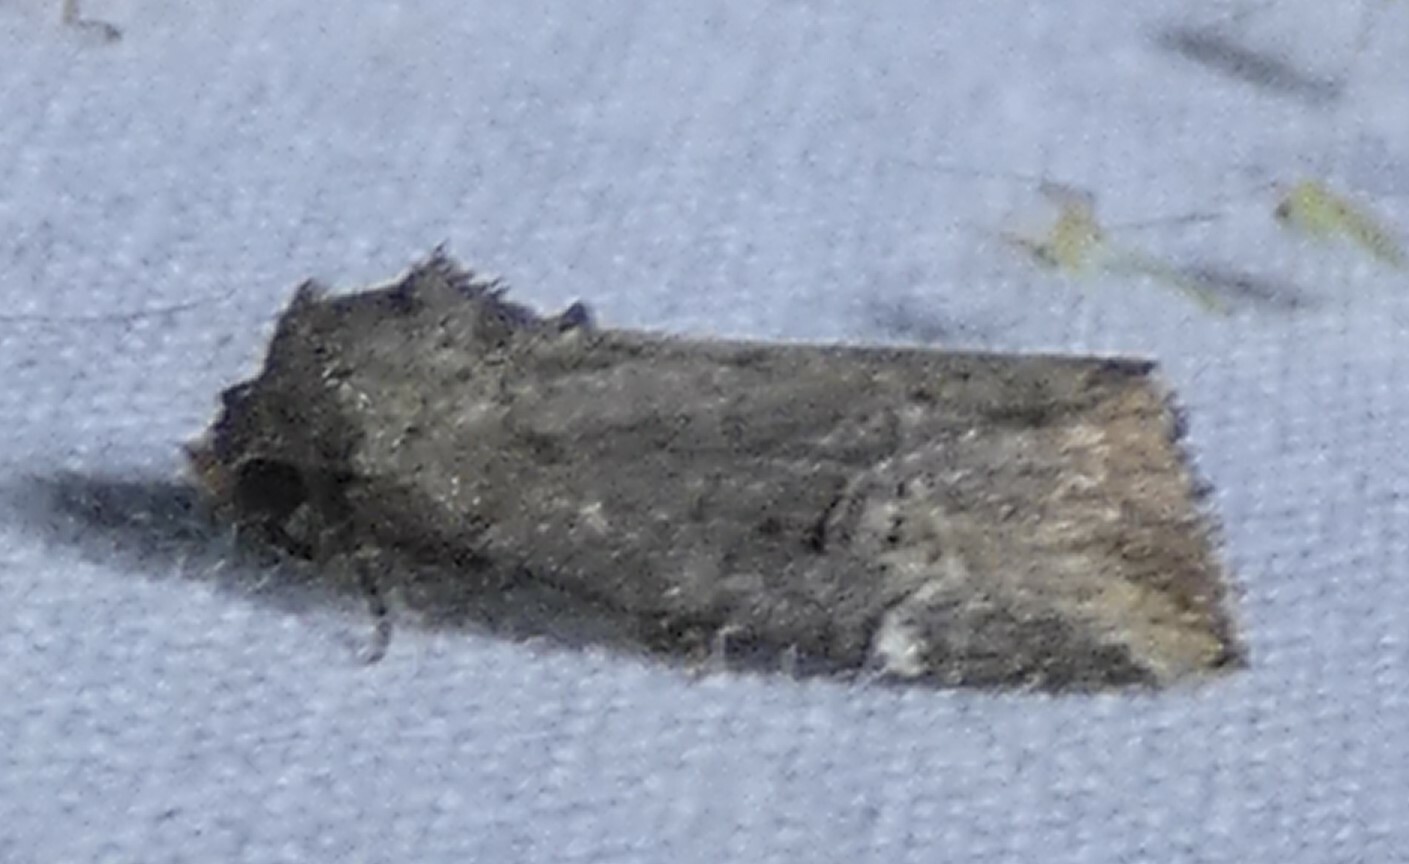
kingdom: Animalia
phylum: Arthropoda
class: Insecta
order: Lepidoptera
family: Noctuidae
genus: Elaphria
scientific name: Elaphria versicolor
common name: Fir harlequin
